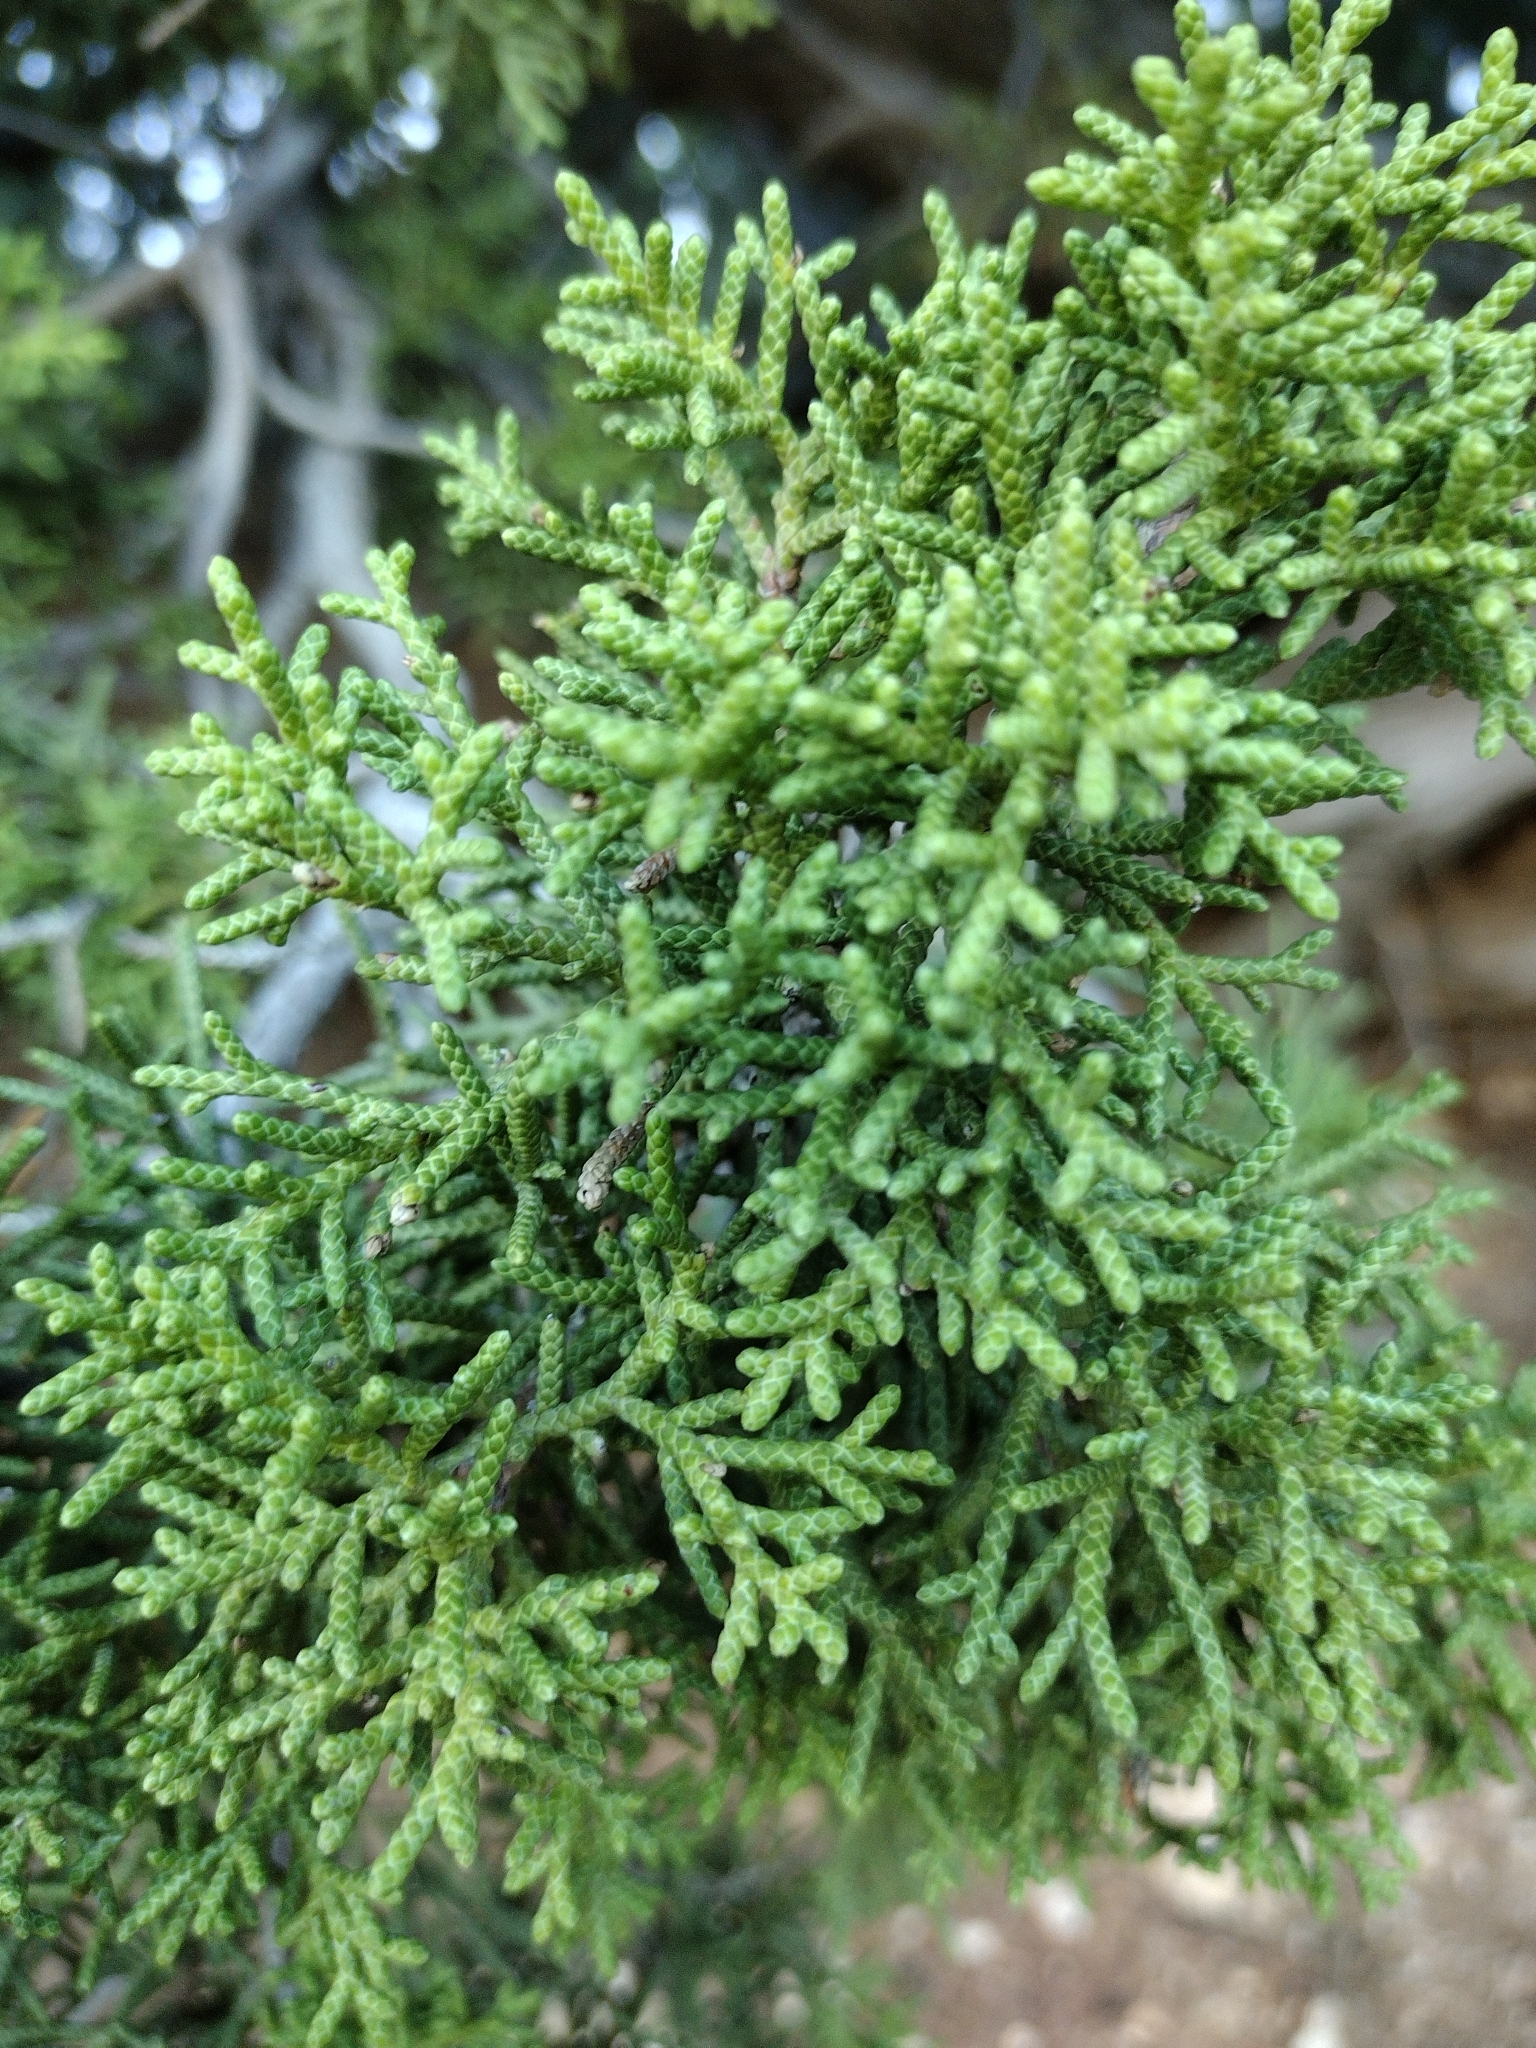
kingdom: Plantae
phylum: Tracheophyta
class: Pinopsida
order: Pinales
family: Cupressaceae
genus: Juniperus
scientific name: Juniperus californica
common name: California juniper
